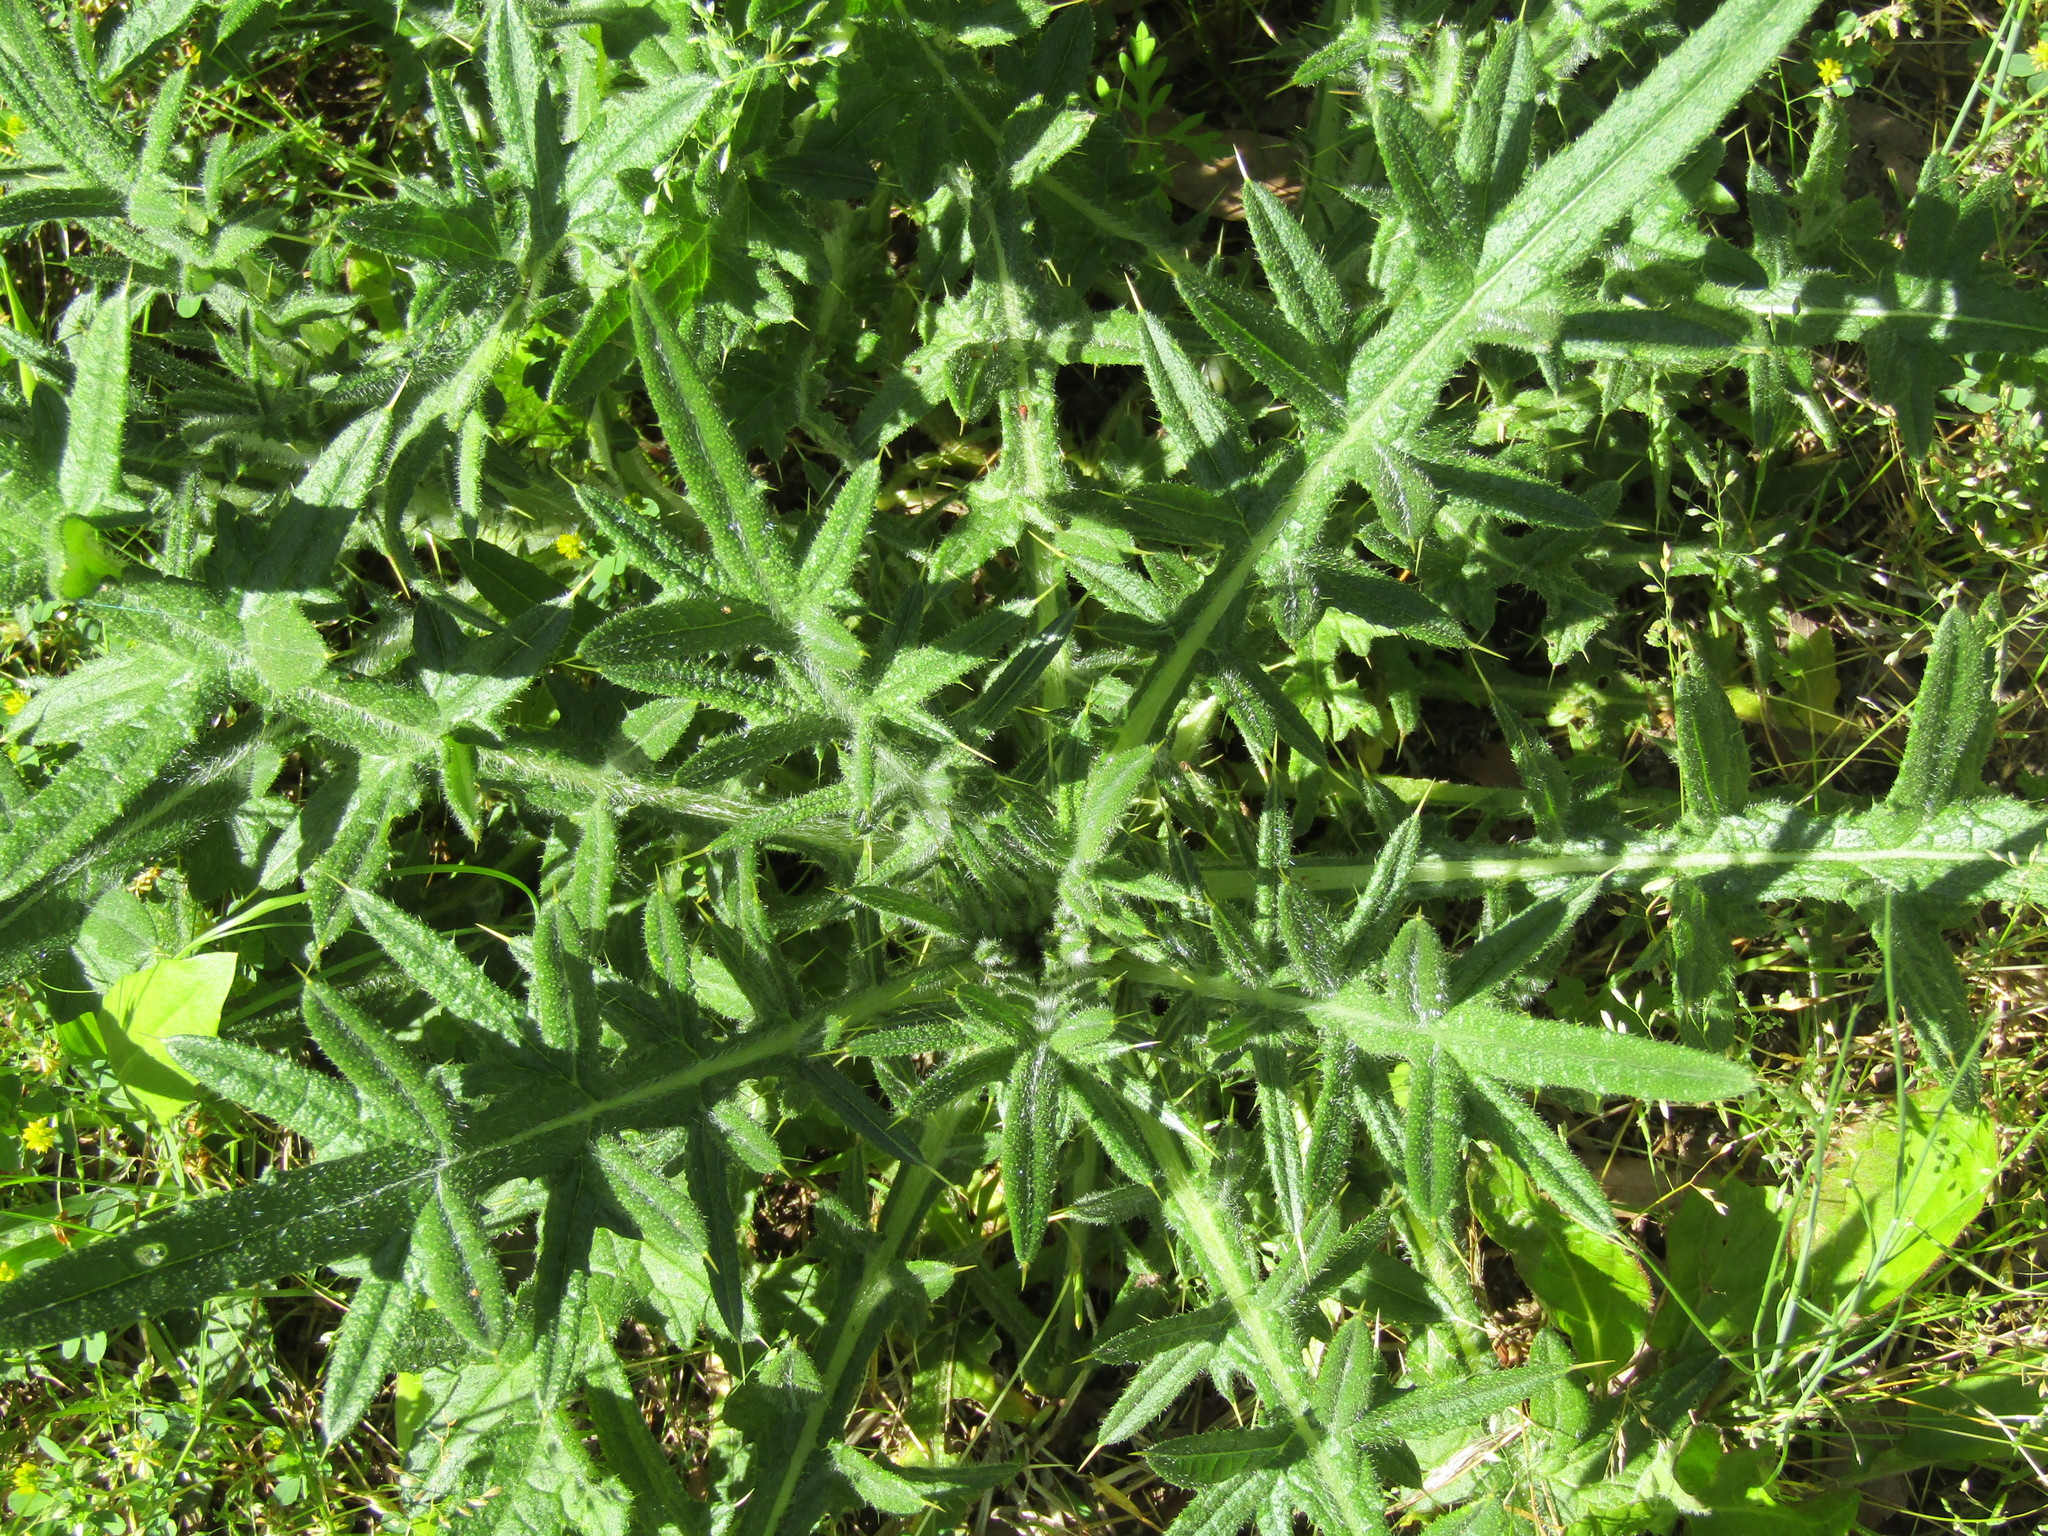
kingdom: Plantae
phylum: Tracheophyta
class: Magnoliopsida
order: Asterales
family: Asteraceae
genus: Cirsium
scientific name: Cirsium vulgare
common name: Bull thistle
